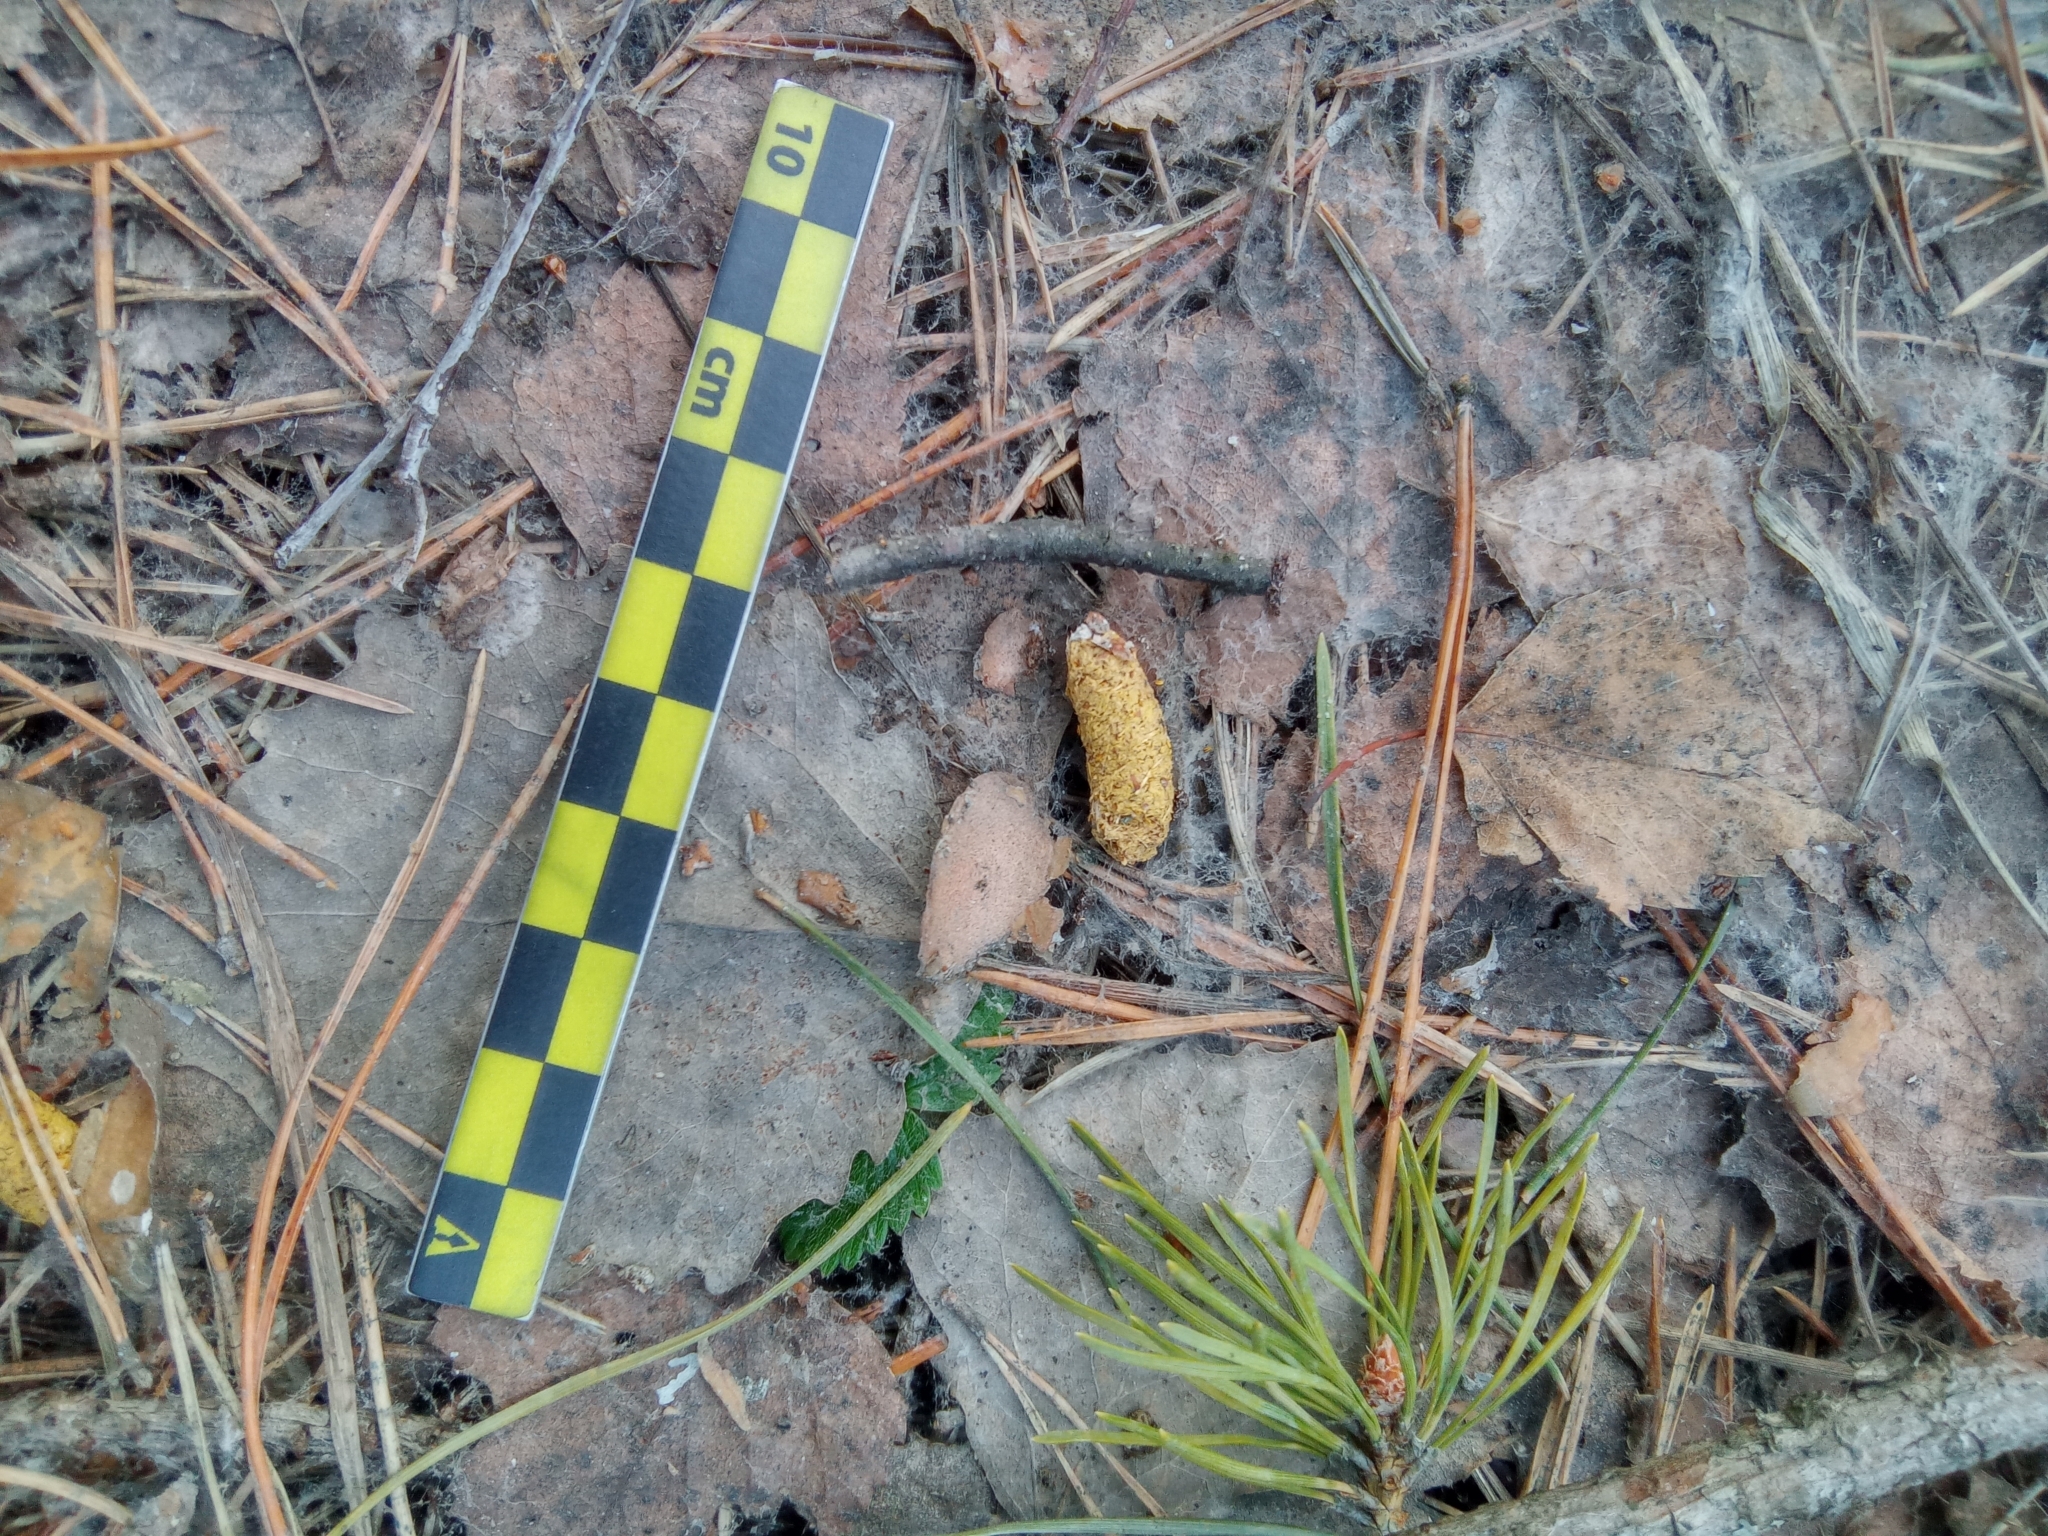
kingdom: Animalia
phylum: Chordata
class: Aves
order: Galliformes
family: Phasianidae
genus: Lyrurus
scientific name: Lyrurus tetrix
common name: Black grouse
